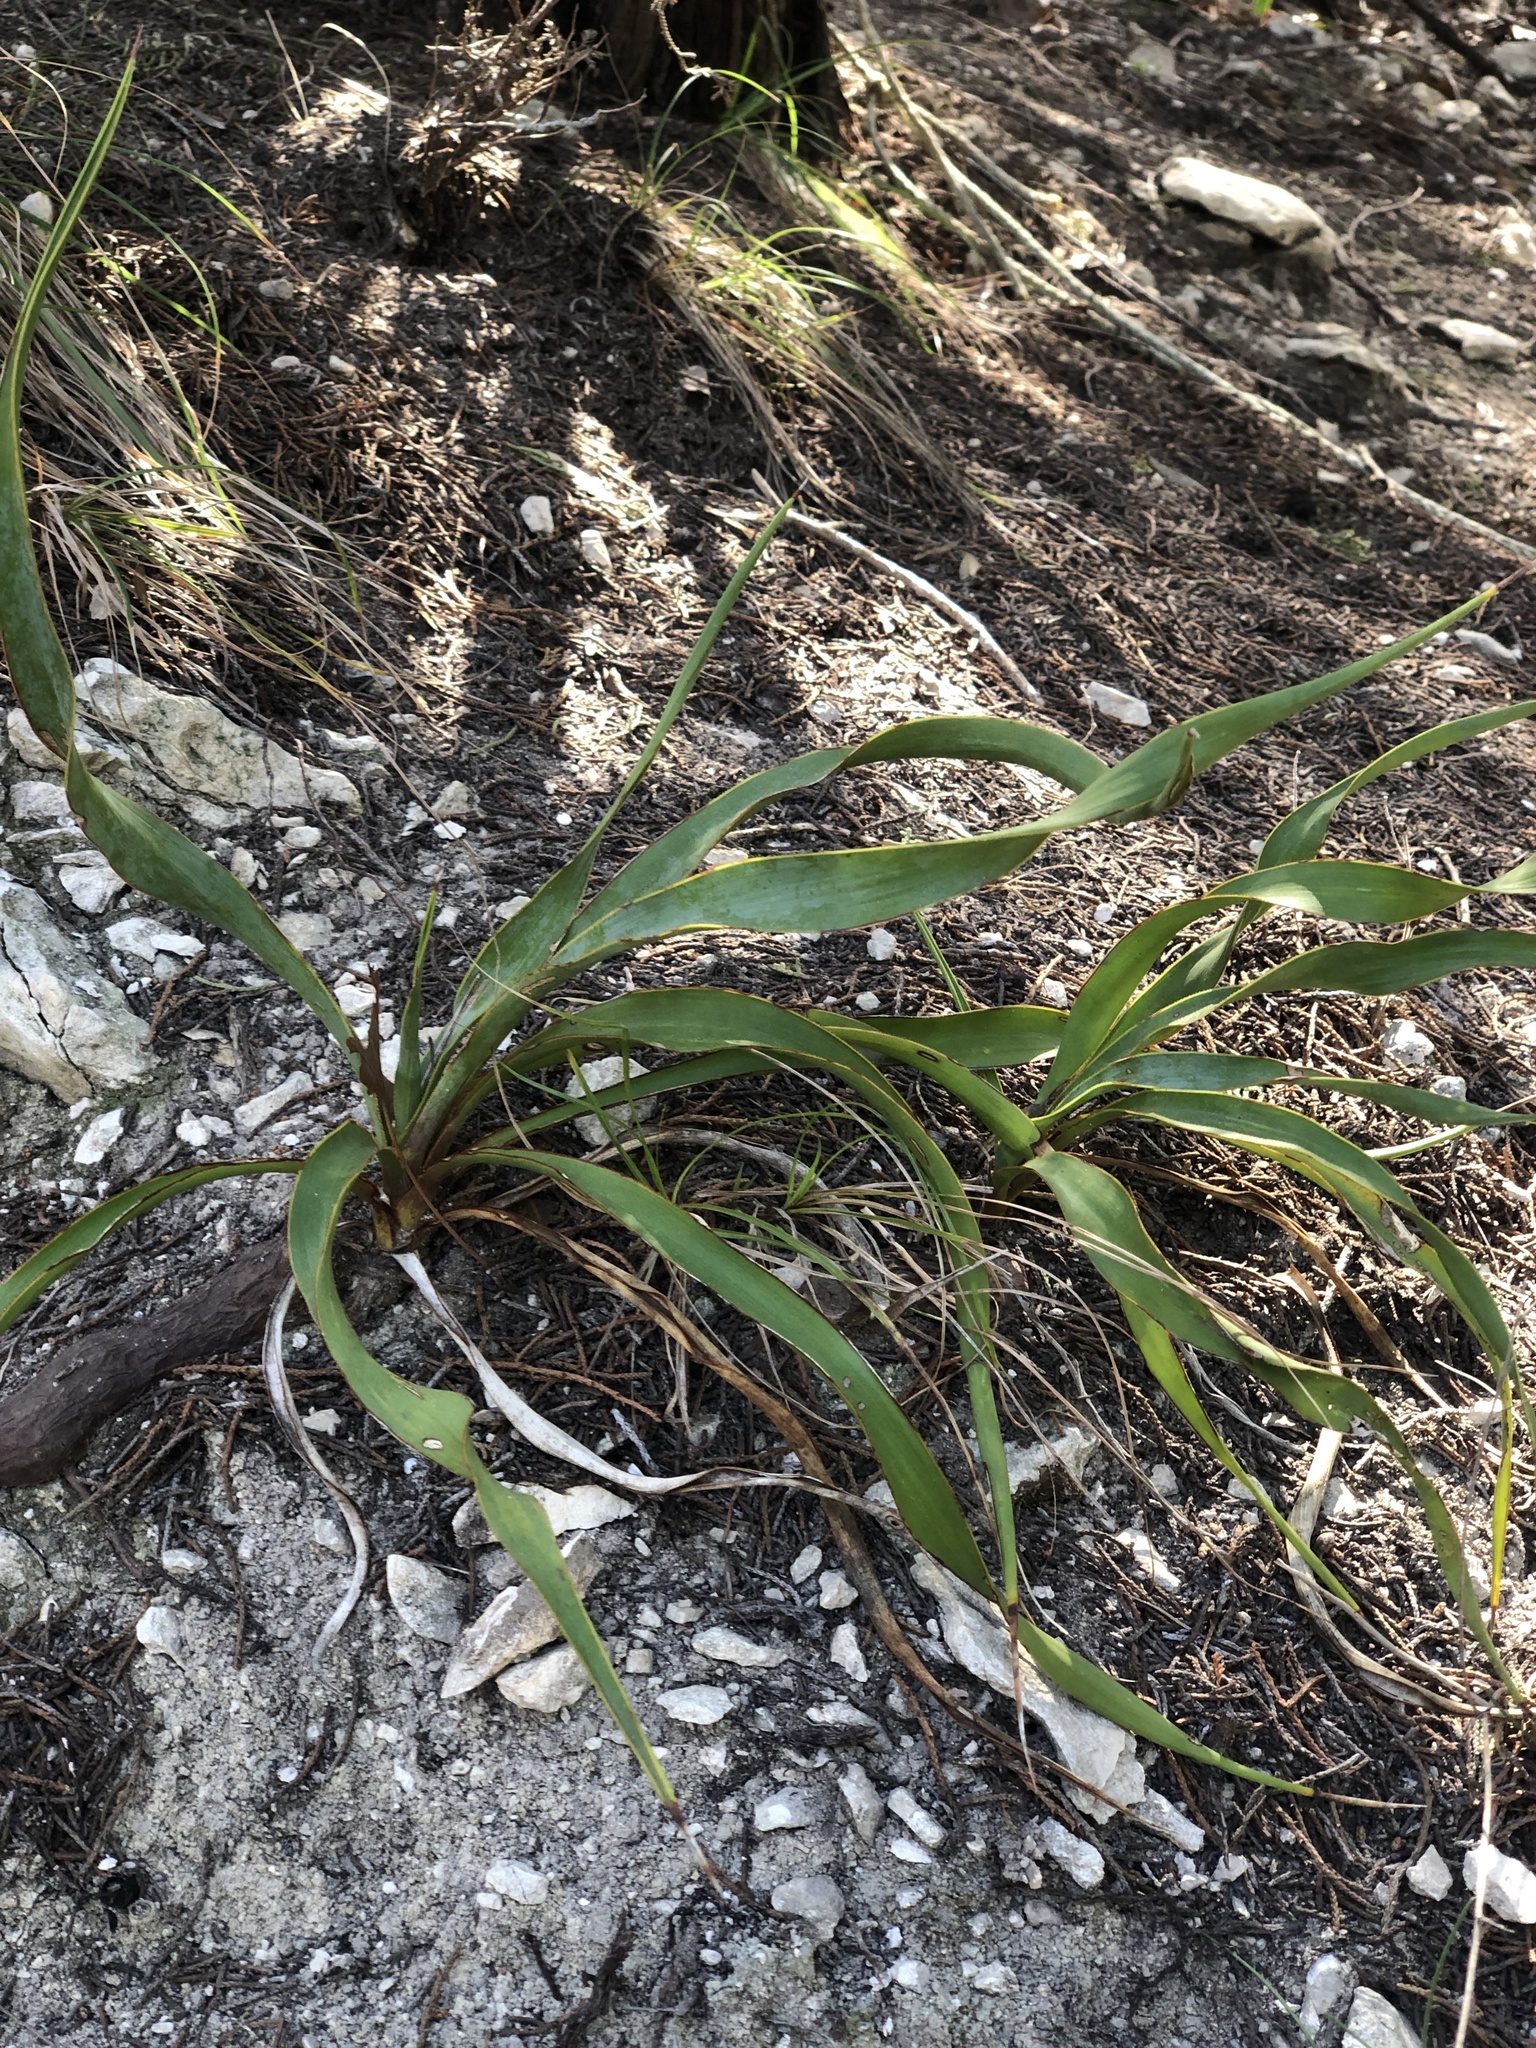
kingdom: Plantae
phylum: Tracheophyta
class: Liliopsida
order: Asparagales
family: Asparagaceae
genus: Yucca
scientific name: Yucca rupicola
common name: Twisted-leaf spanish-dagger
